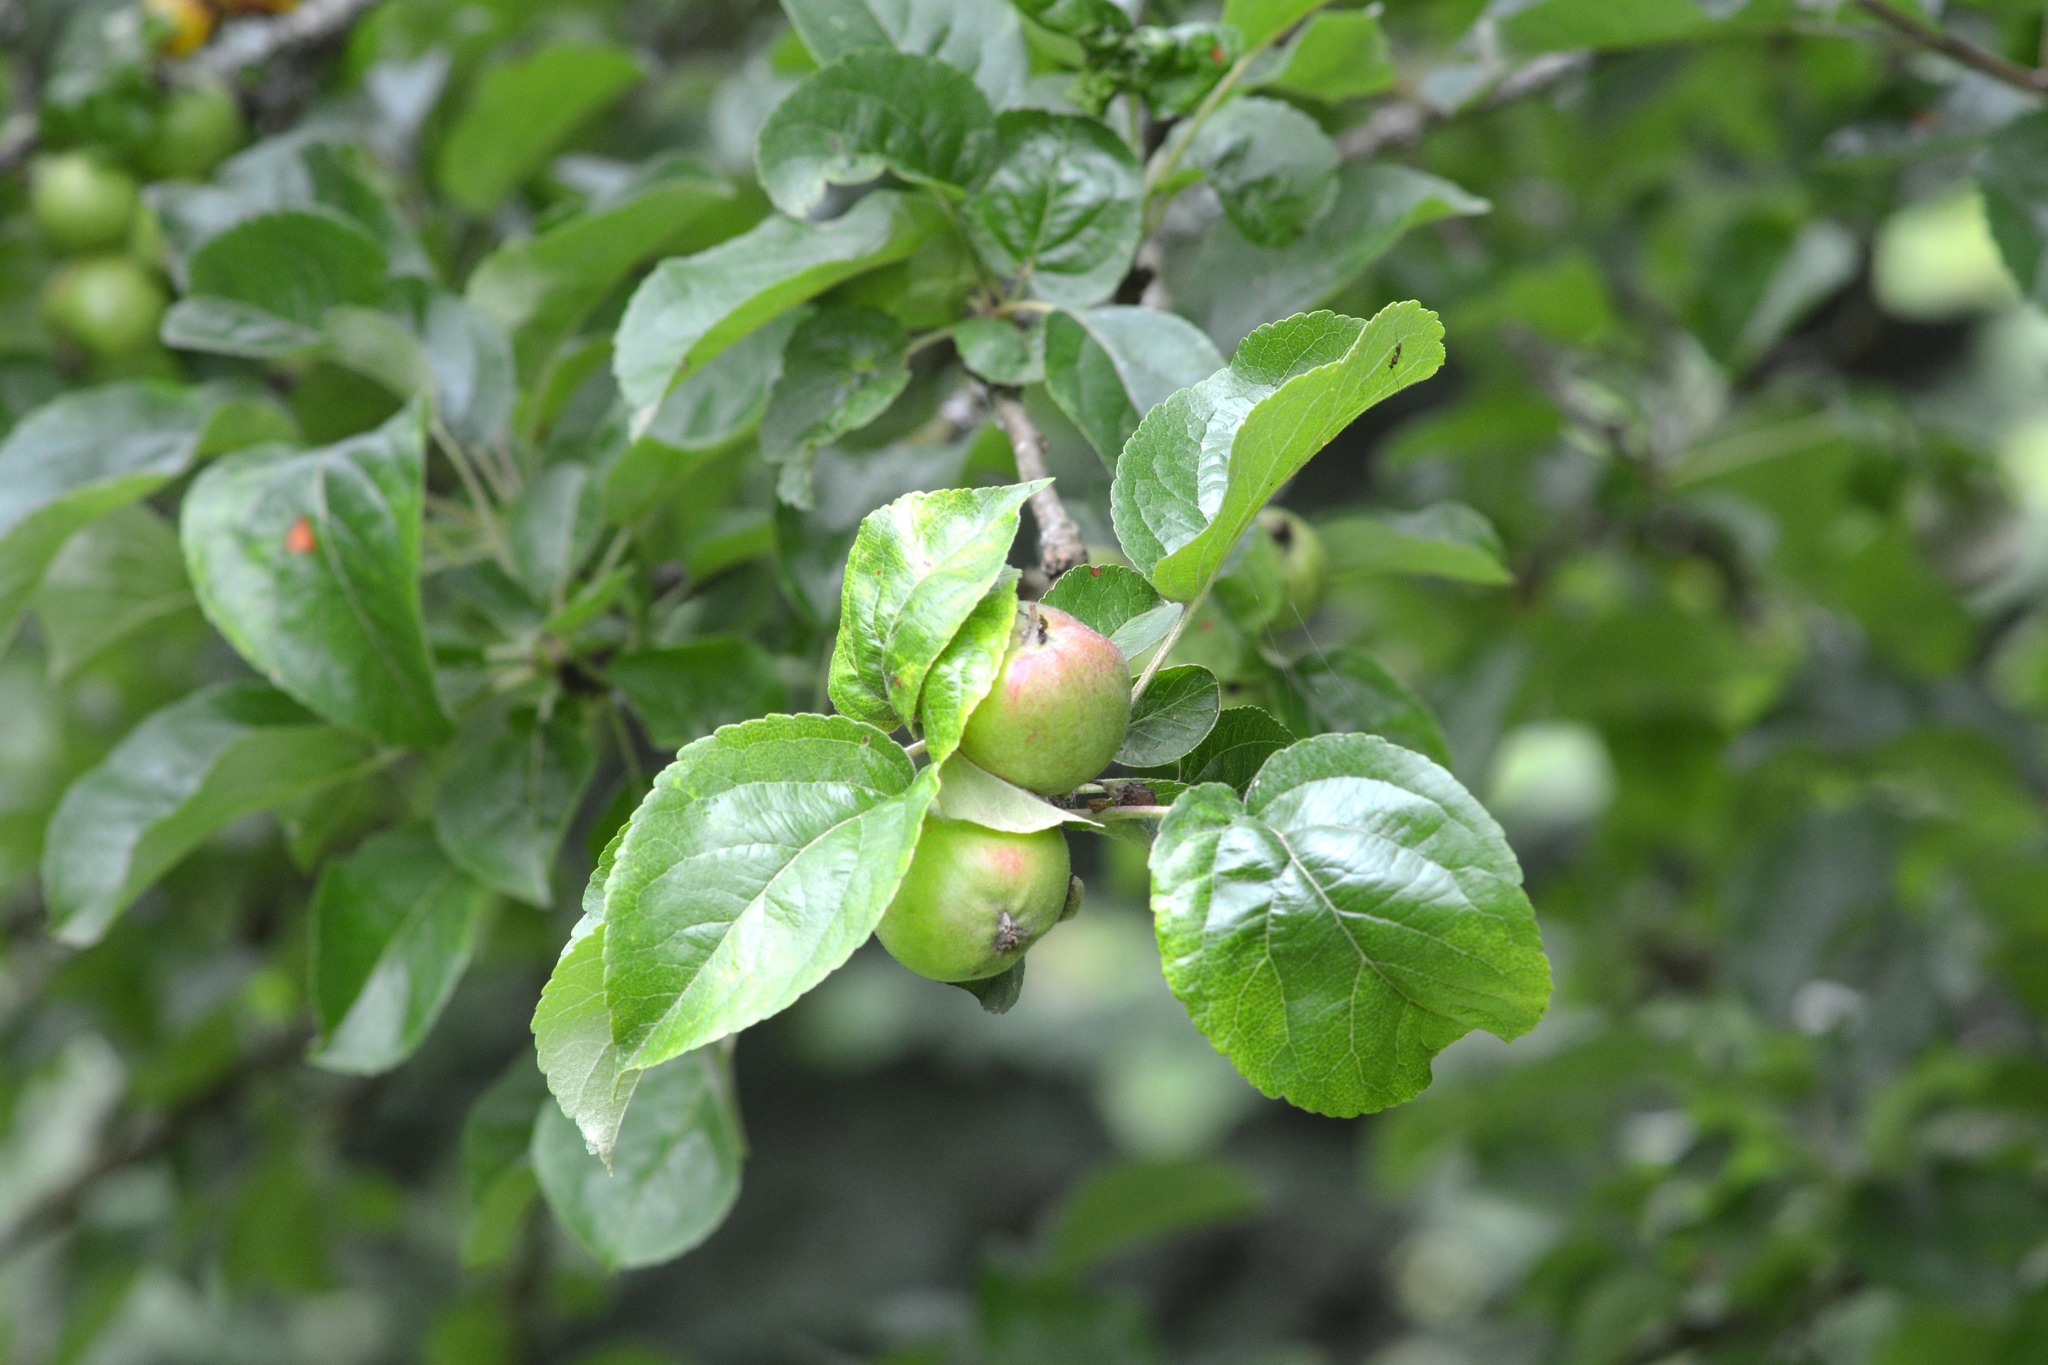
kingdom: Plantae
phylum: Tracheophyta
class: Magnoliopsida
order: Rosales
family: Rosaceae
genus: Malus
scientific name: Malus domestica
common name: Apple
